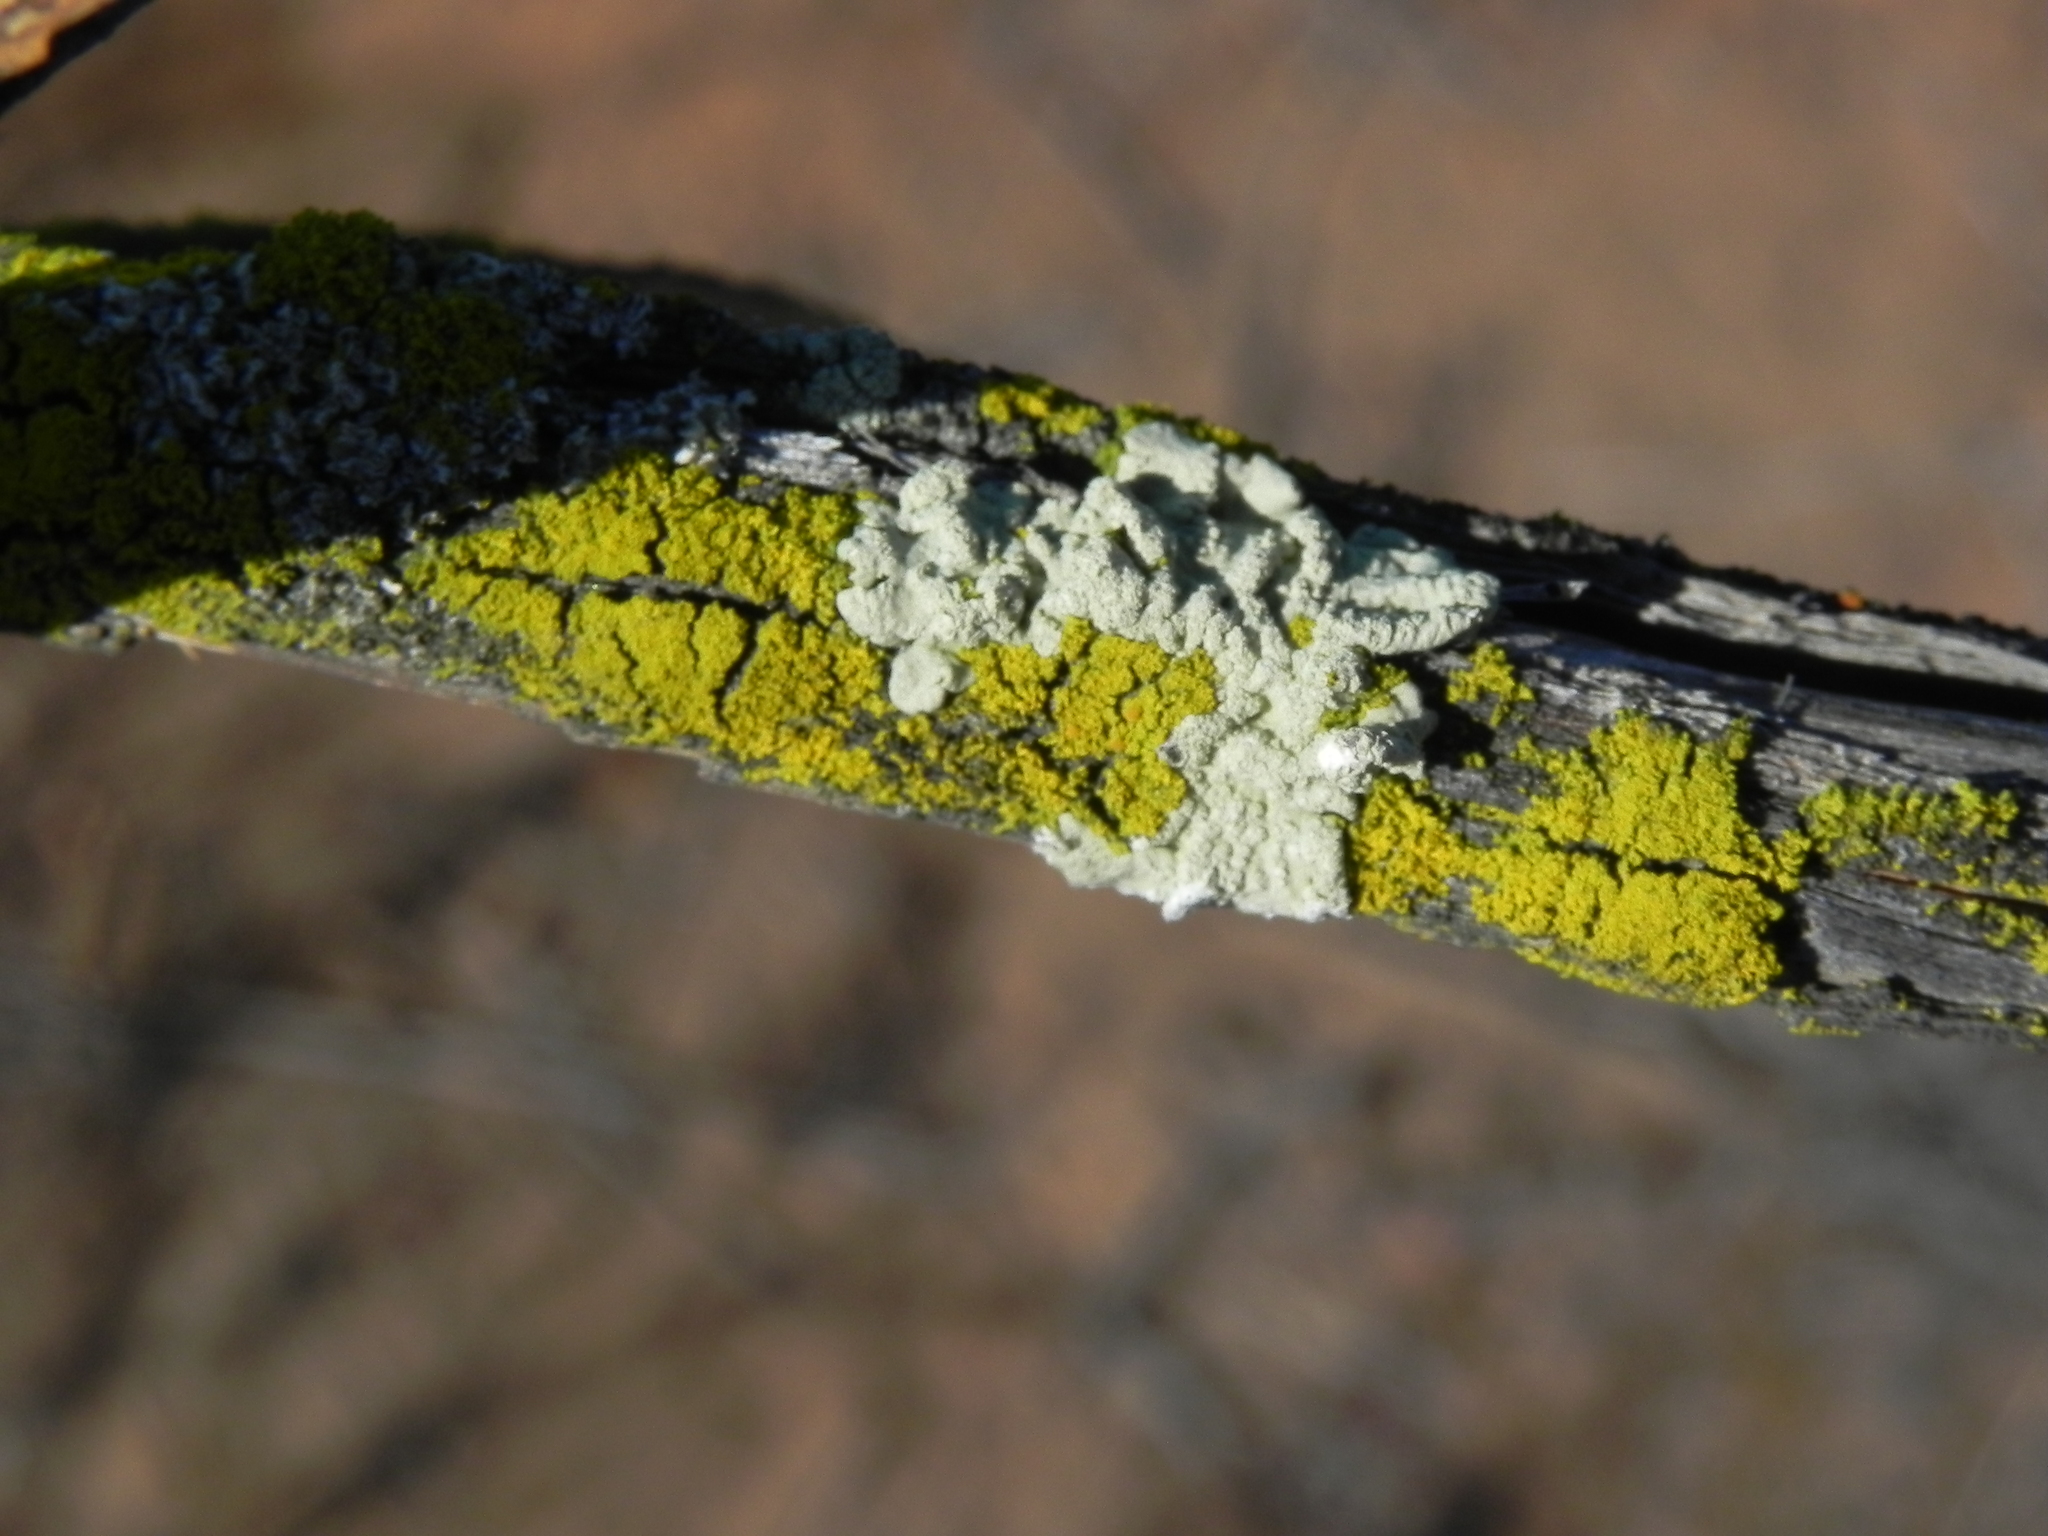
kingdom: Fungi
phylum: Ascomycota
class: Lecanoromycetes
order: Lecanorales
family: Parmeliaceae
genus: Flavoparmelia
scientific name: Flavoparmelia caperata
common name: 40-mile per hour lichen
